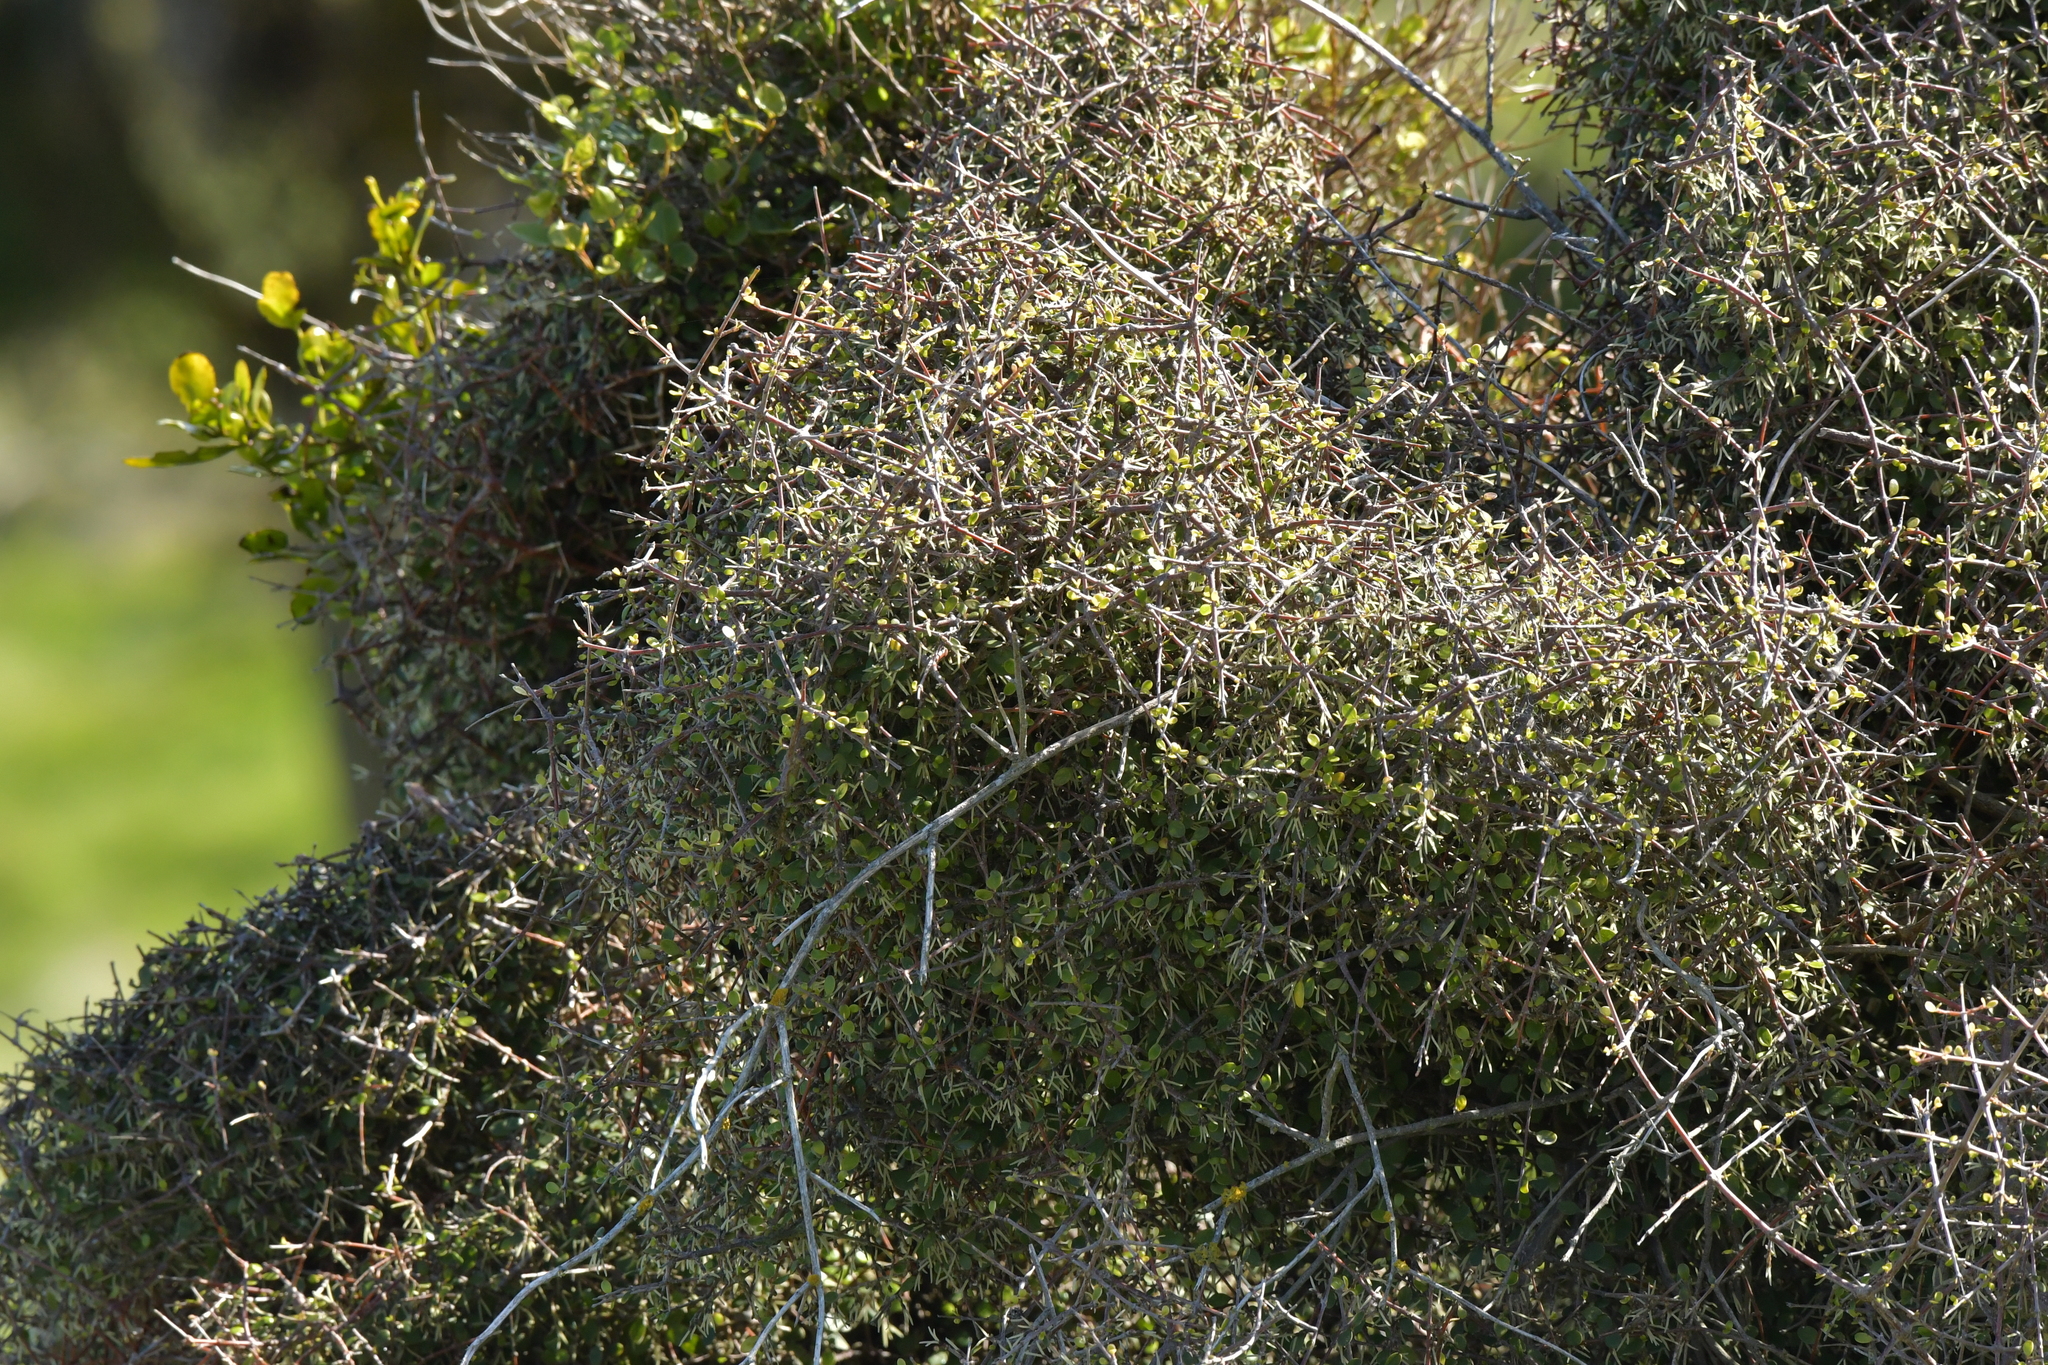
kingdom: Plantae
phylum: Tracheophyta
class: Magnoliopsida
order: Gentianales
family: Rubiaceae
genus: Coprosma
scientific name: Coprosma propinqua
